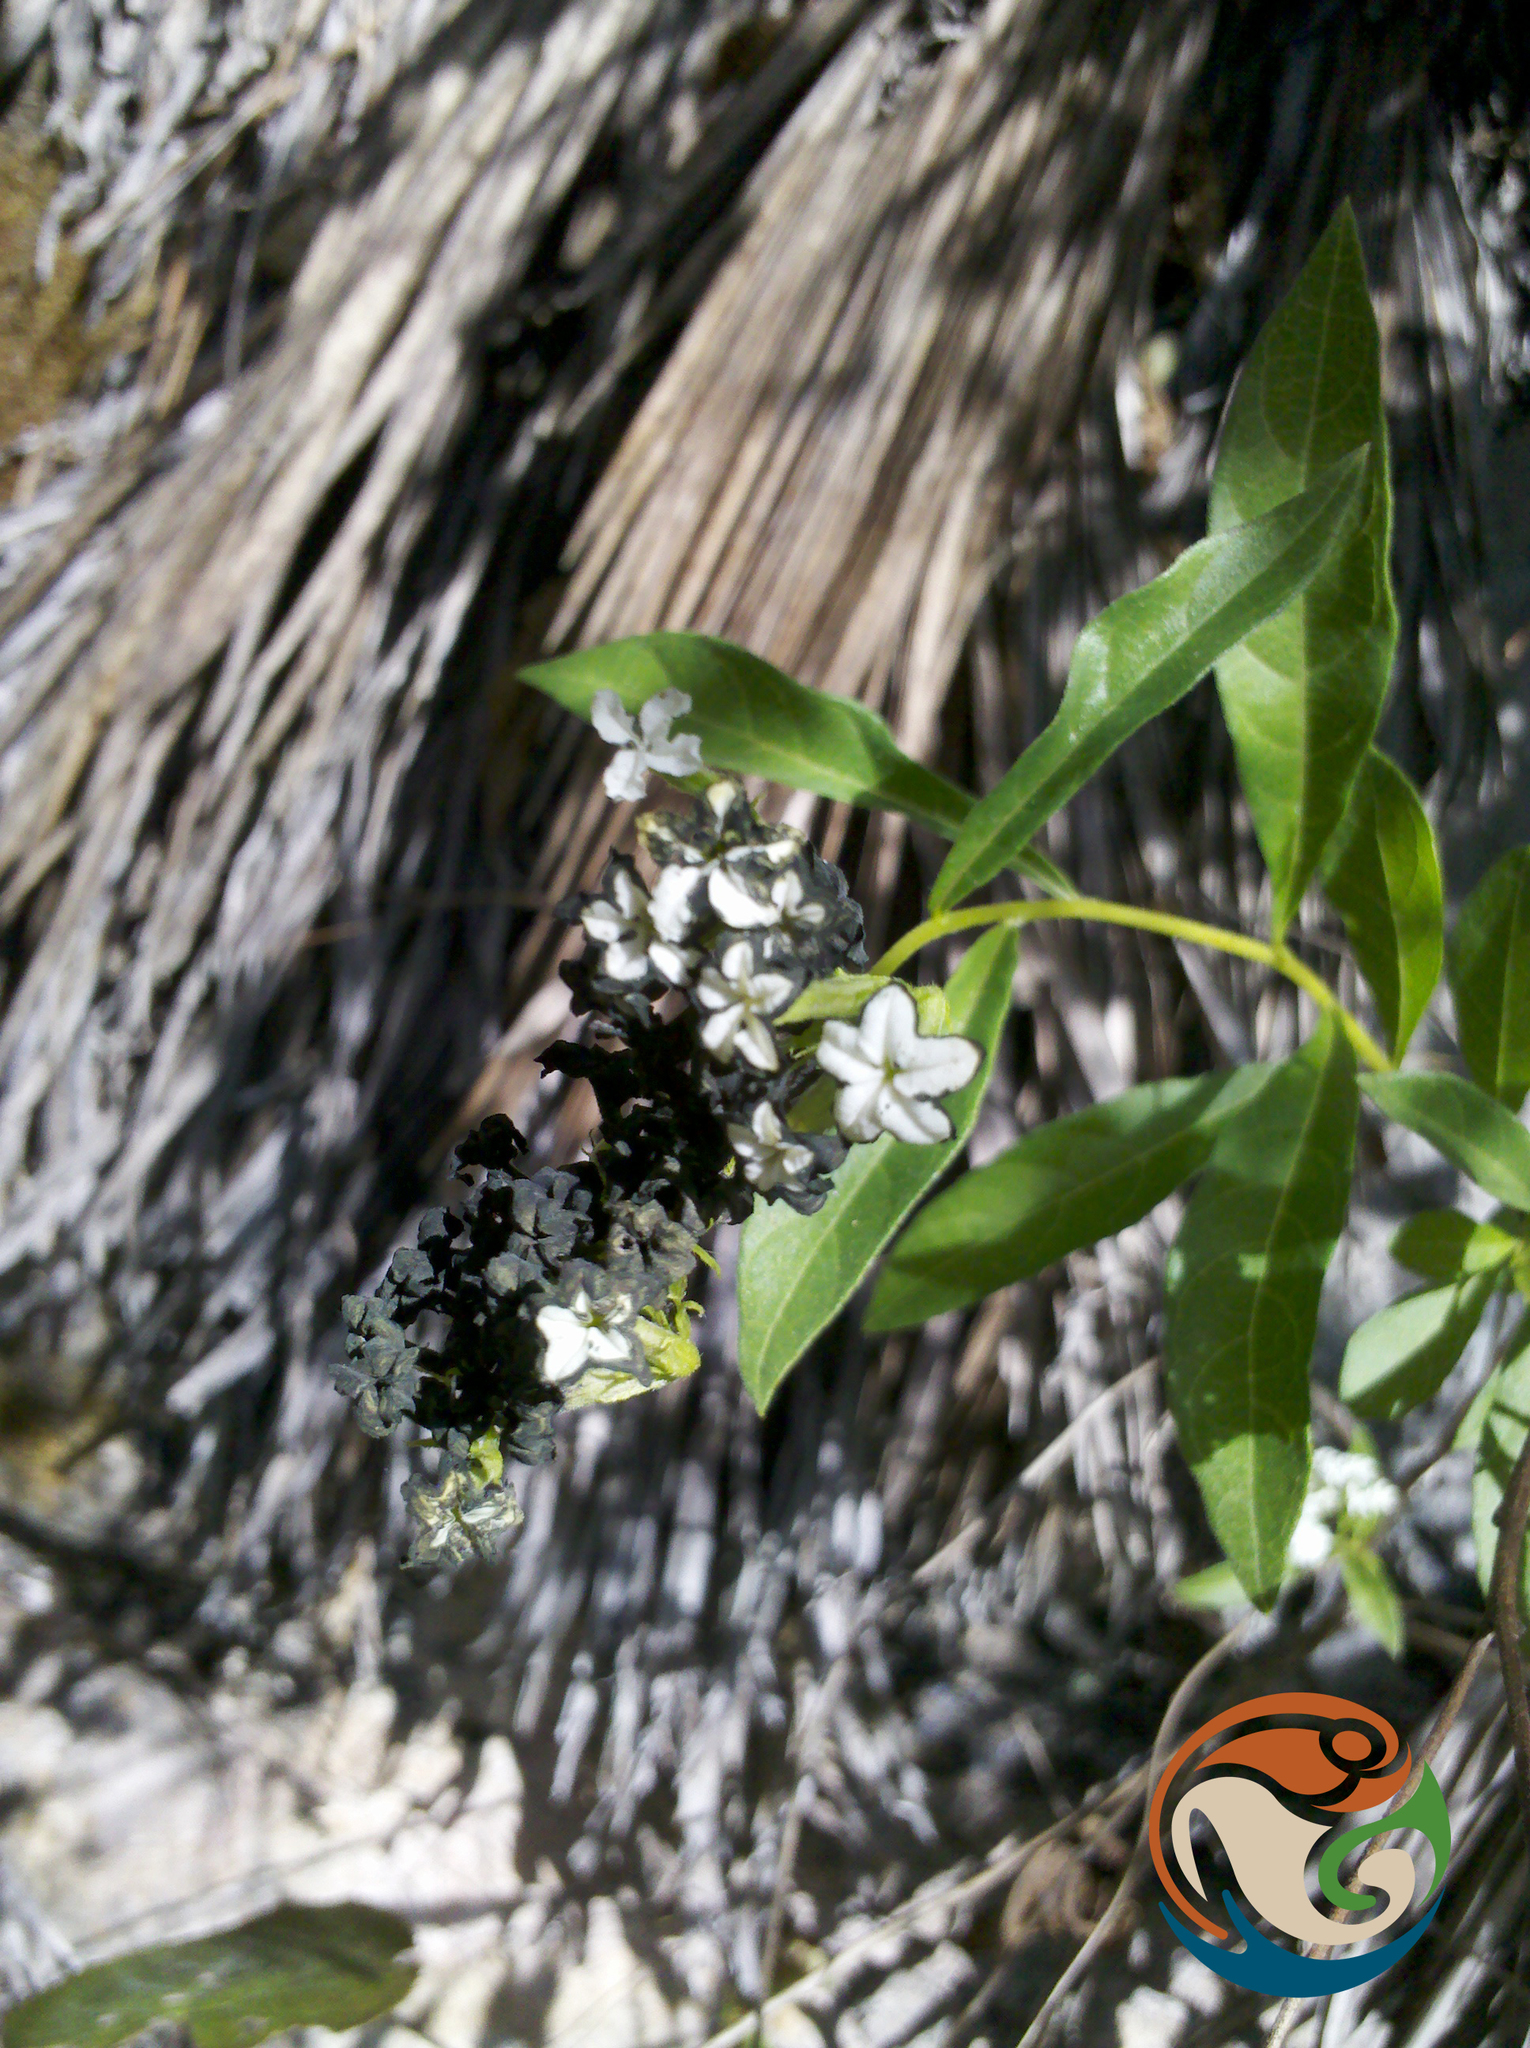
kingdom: Plantae
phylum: Tracheophyta
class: Magnoliopsida
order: Boraginales
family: Heliotropiaceae
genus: Tournefortia
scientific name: Tournefortia mutabilis
